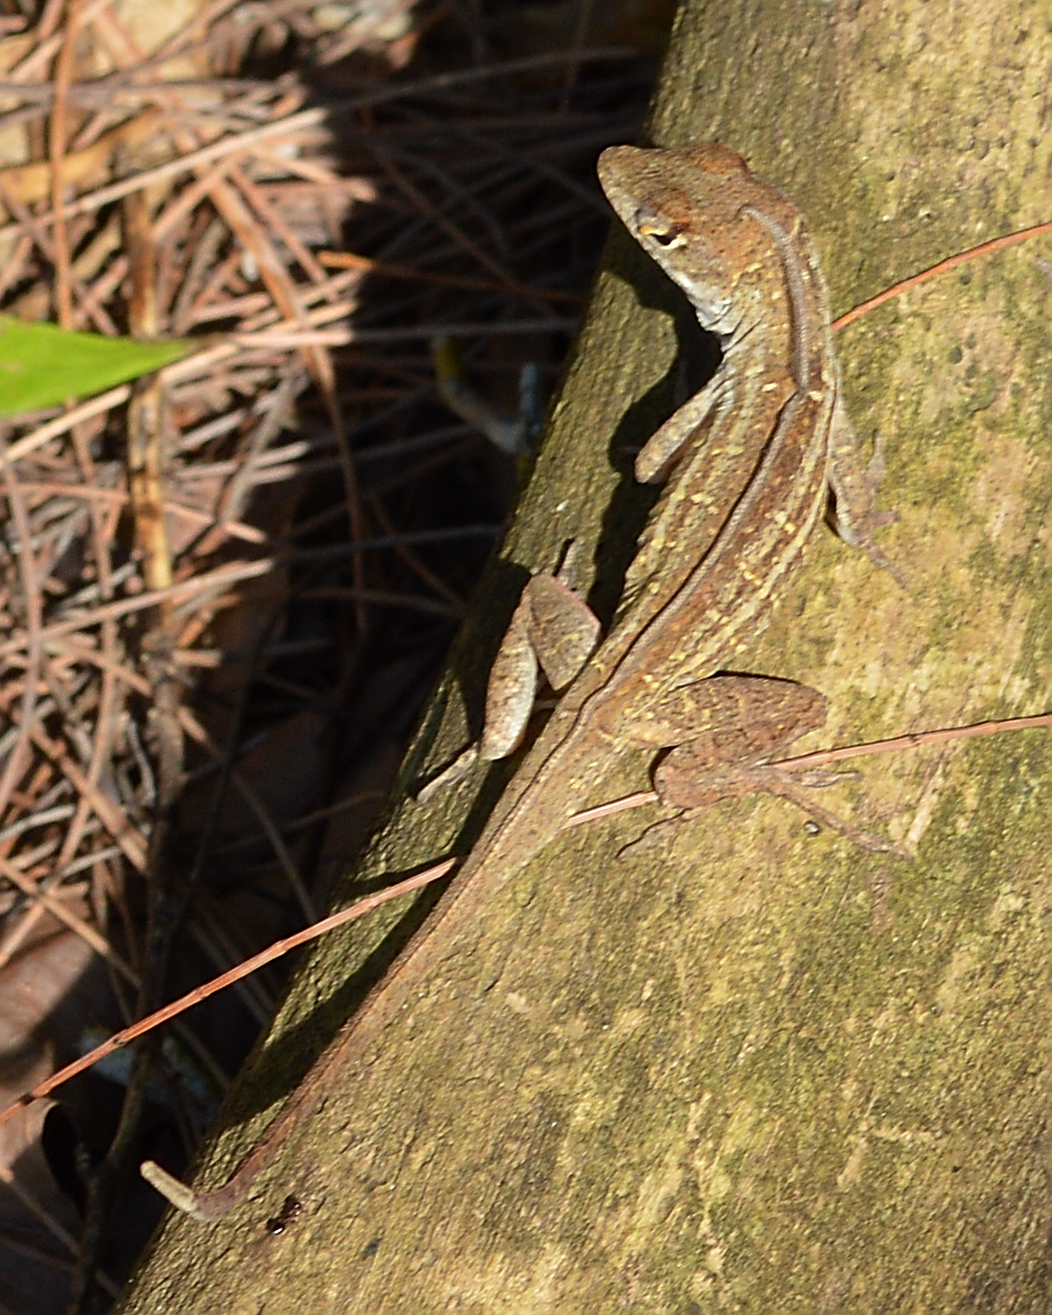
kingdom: Animalia
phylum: Chordata
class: Squamata
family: Dactyloidae
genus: Anolis
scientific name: Anolis sagrei
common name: Brown anole
